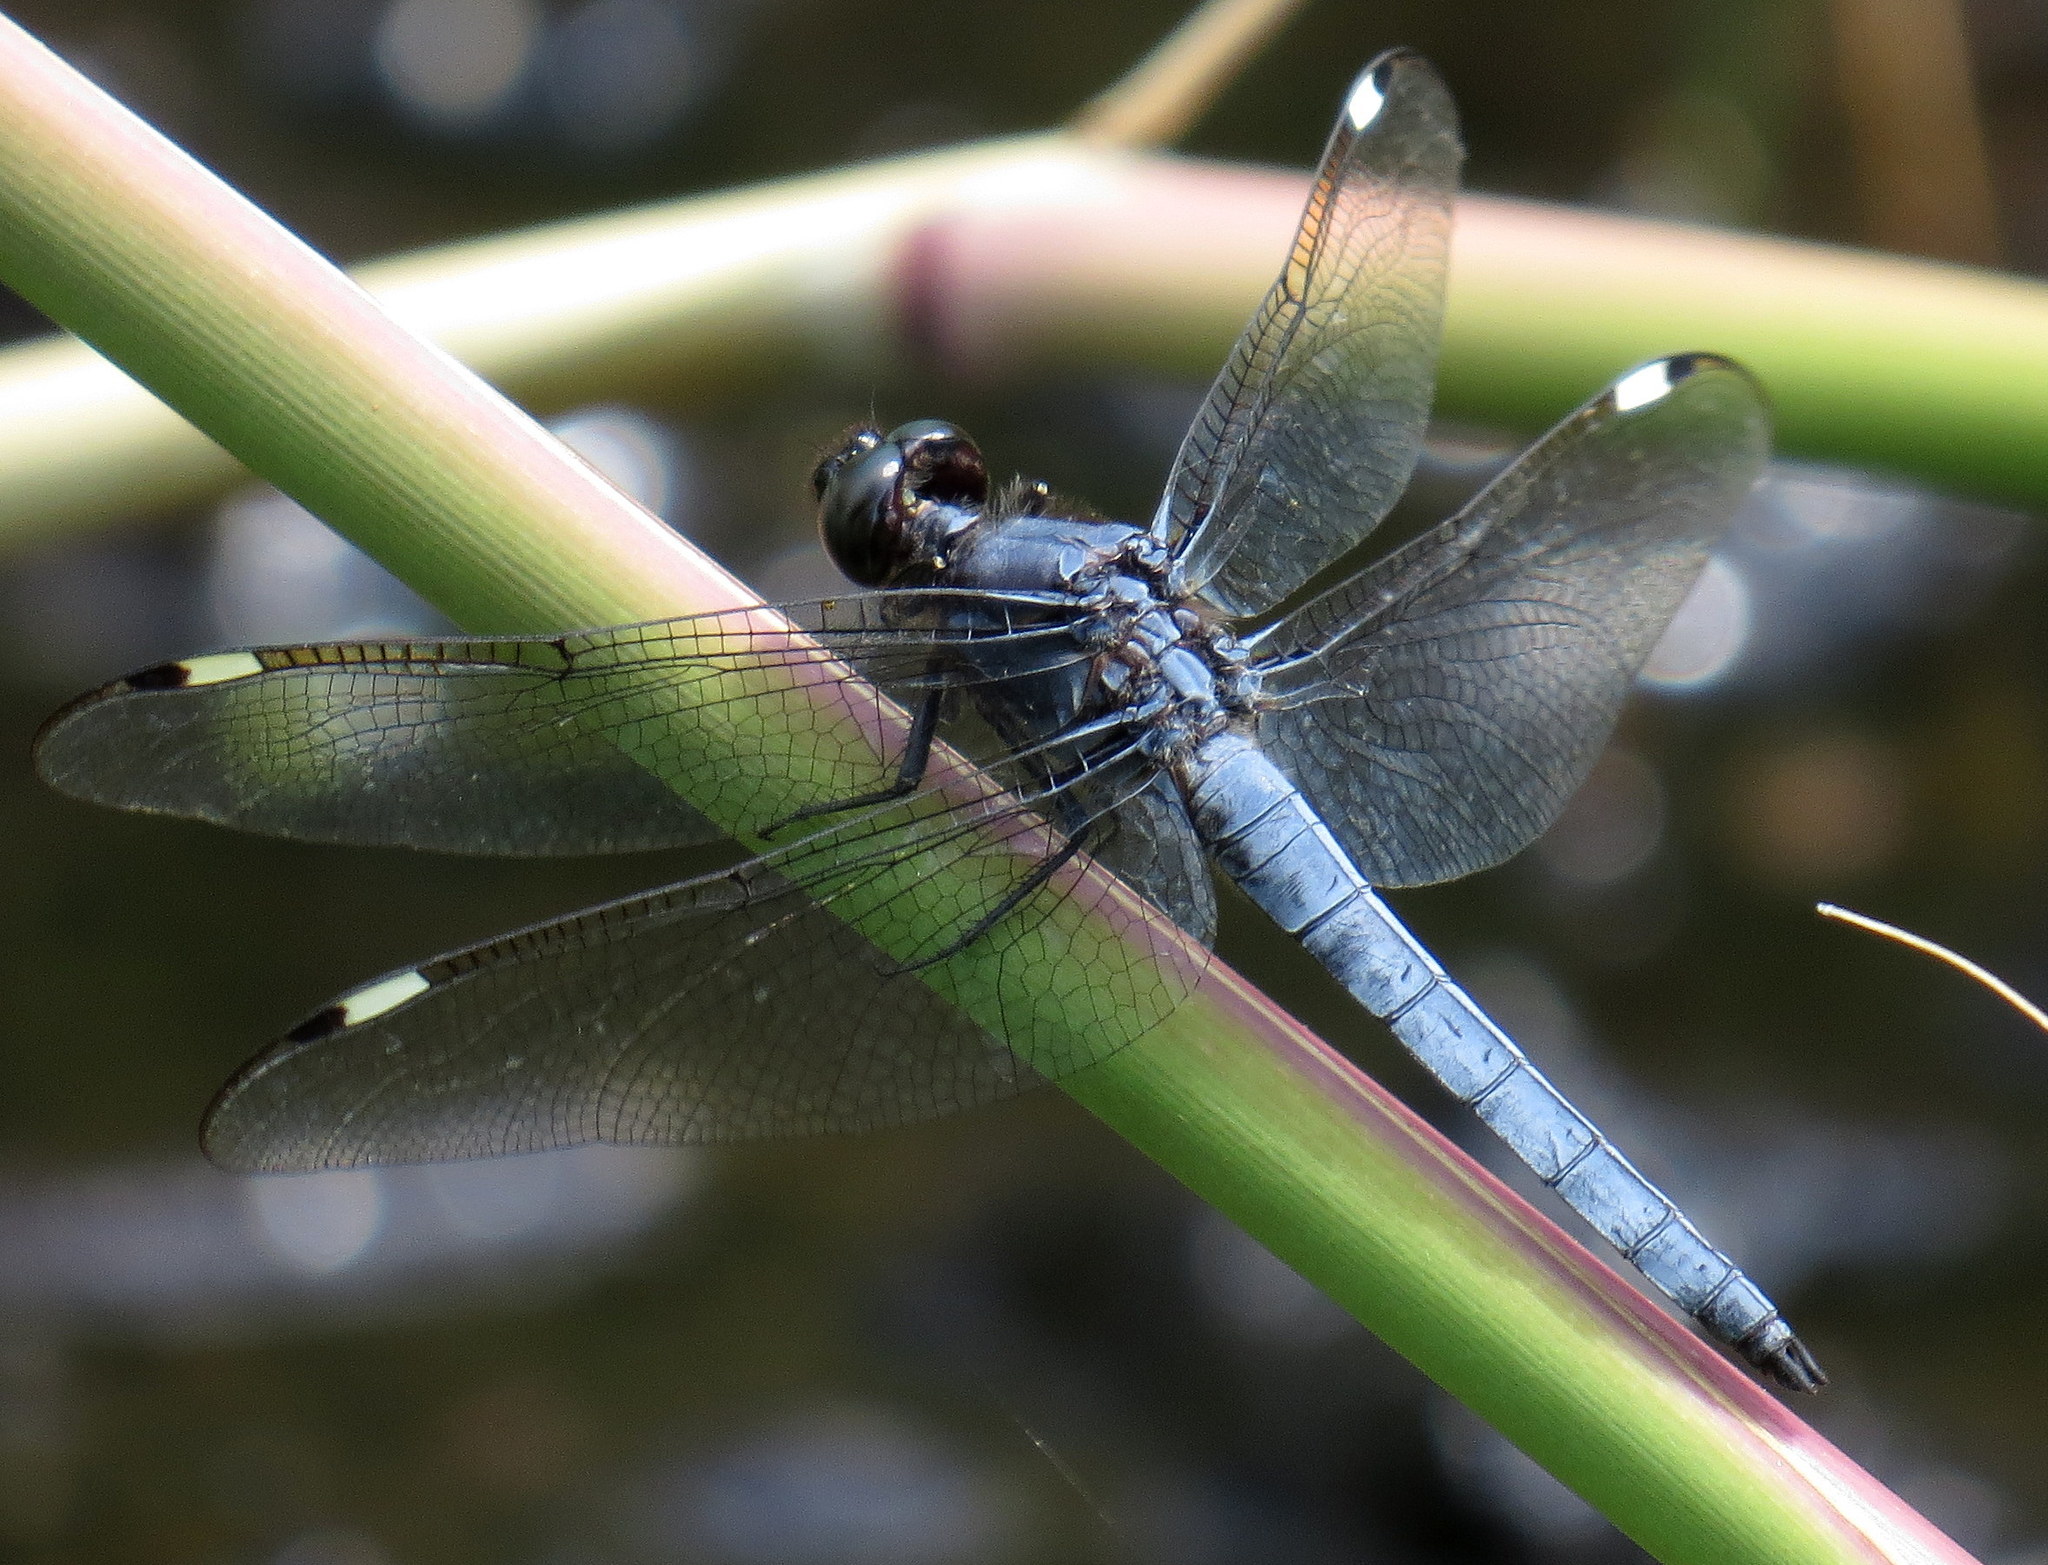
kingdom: Animalia
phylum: Arthropoda
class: Insecta
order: Odonata
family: Libellulidae
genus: Libellula
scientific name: Libellula cyanea
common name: Spangled skimmer
